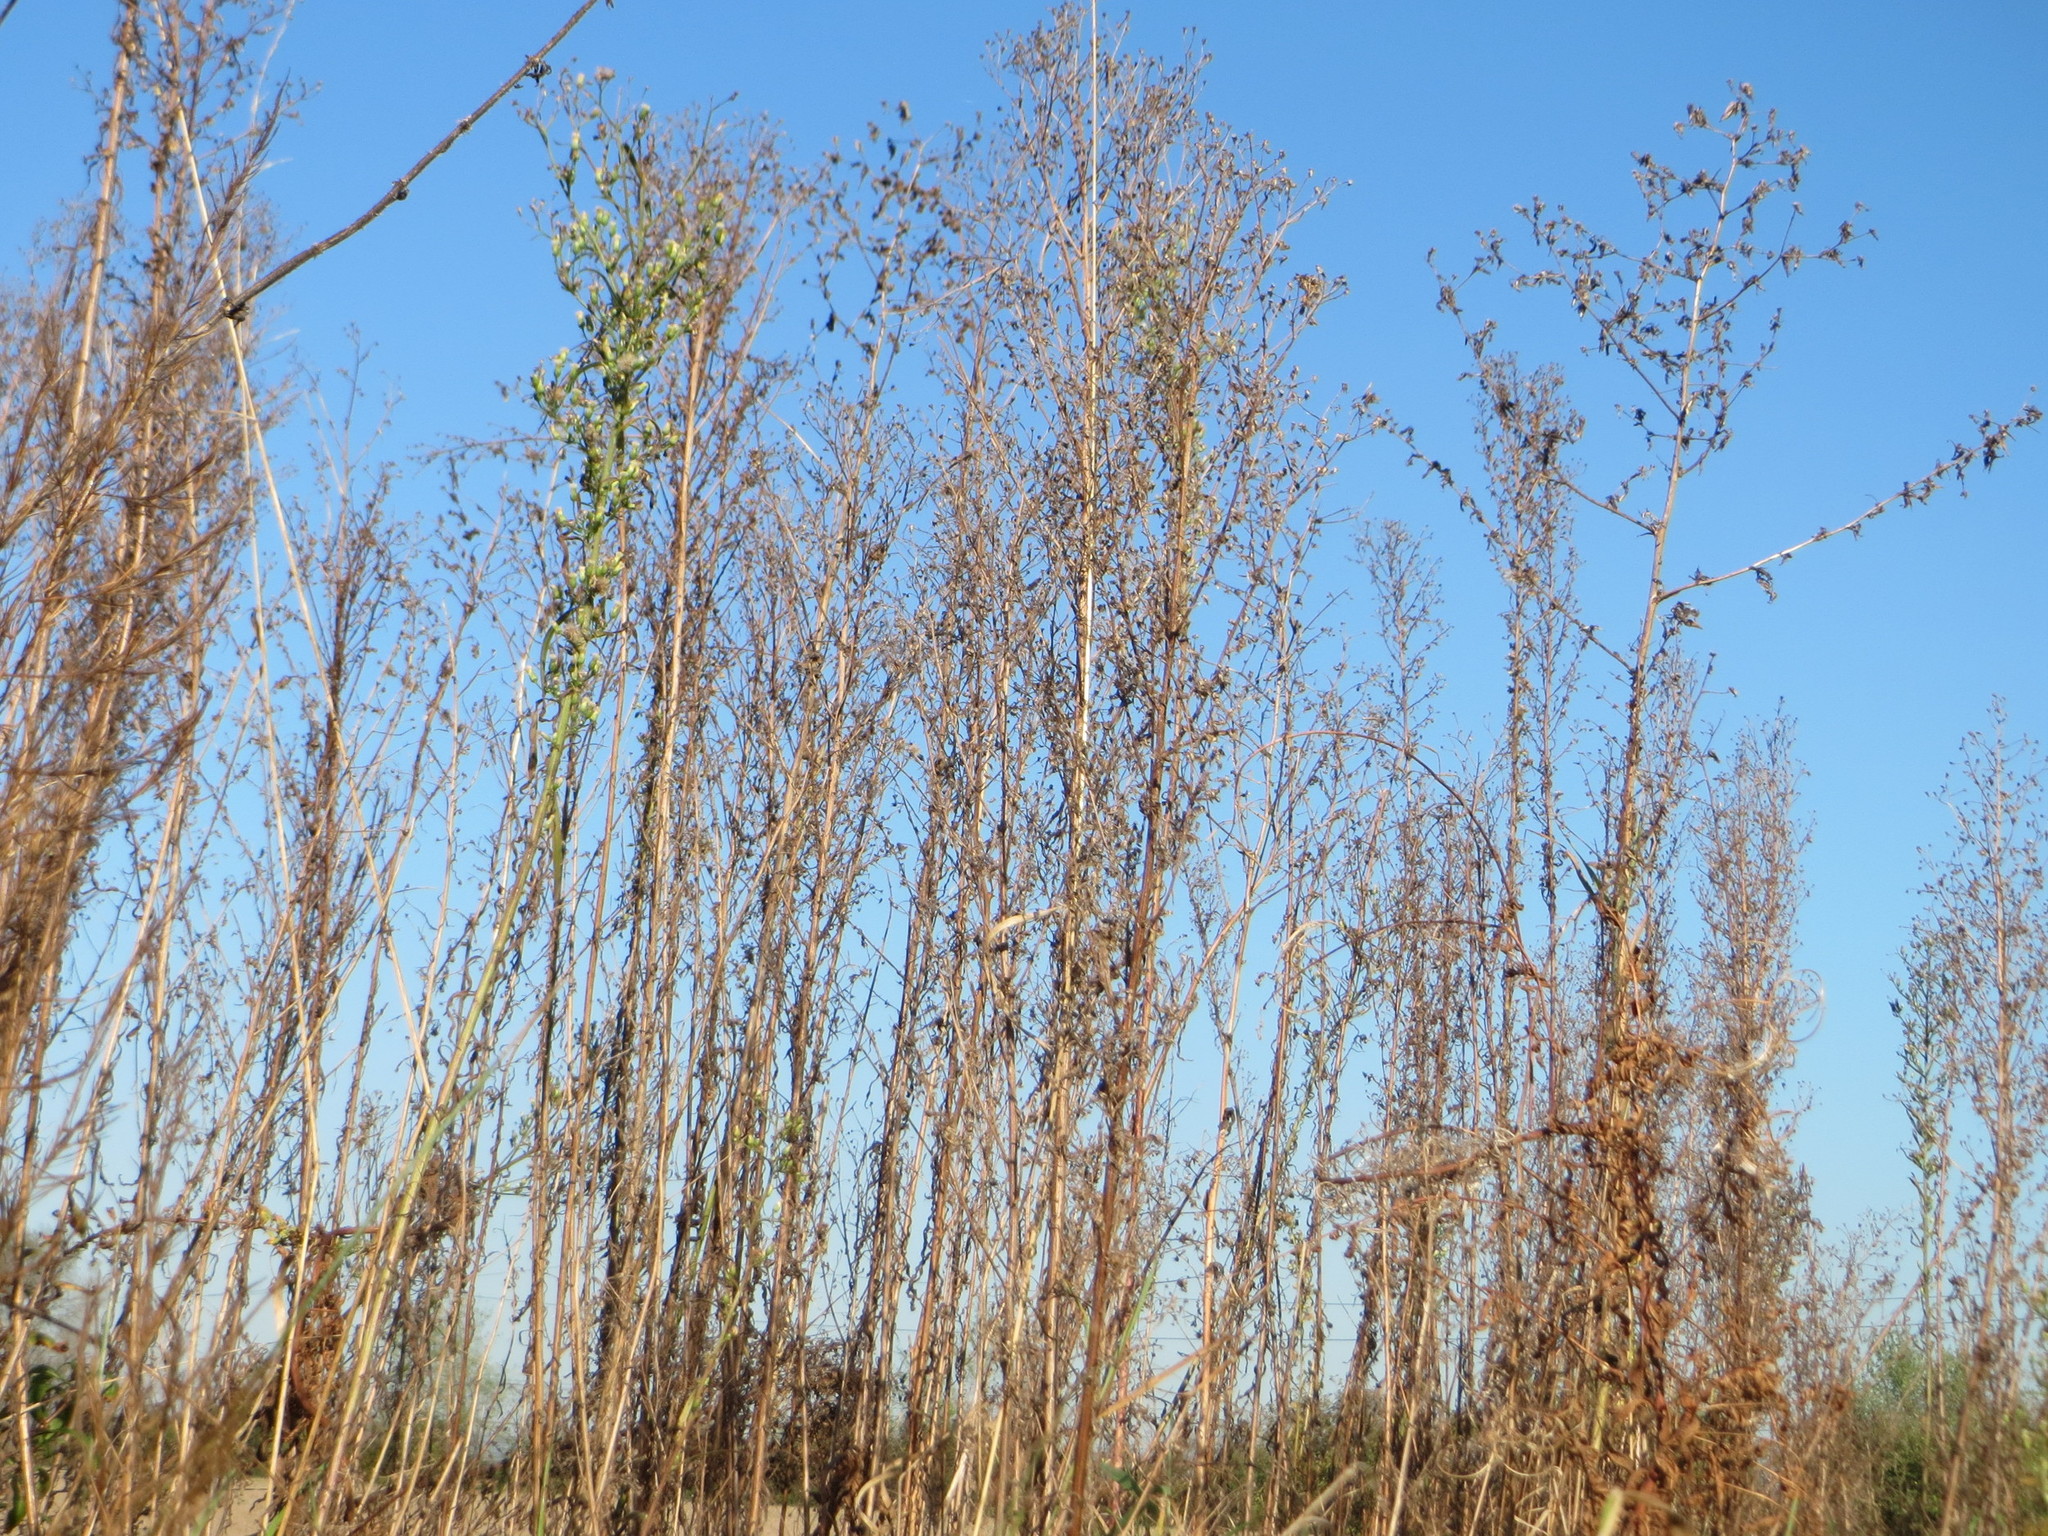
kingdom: Plantae
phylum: Tracheophyta
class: Magnoliopsida
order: Asterales
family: Asteraceae
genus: Erigeron
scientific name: Erigeron canadensis
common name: Canadian fleabane
